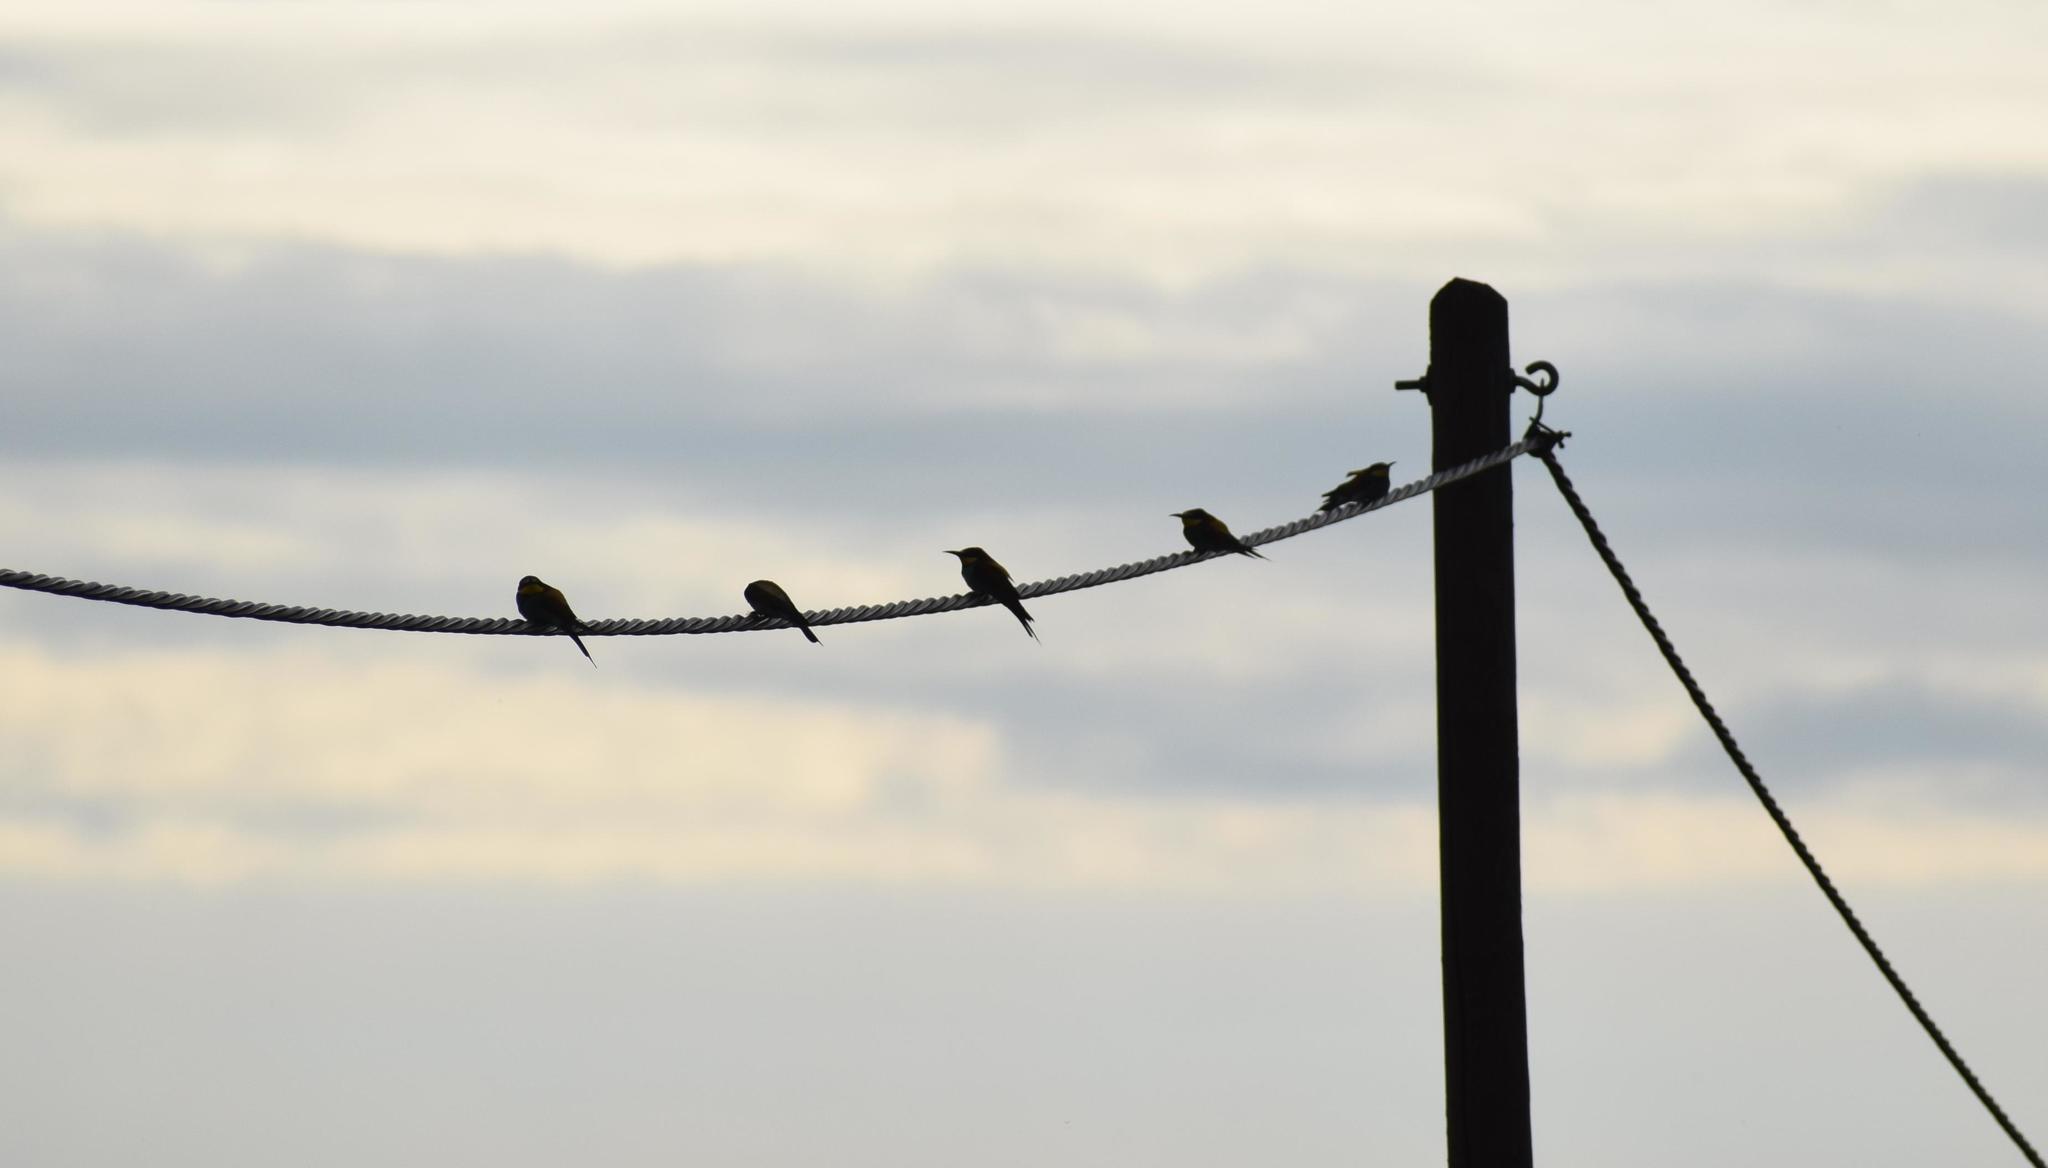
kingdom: Animalia
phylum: Chordata
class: Aves
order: Coraciiformes
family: Meropidae
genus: Merops
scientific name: Merops apiaster
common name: European bee-eater
